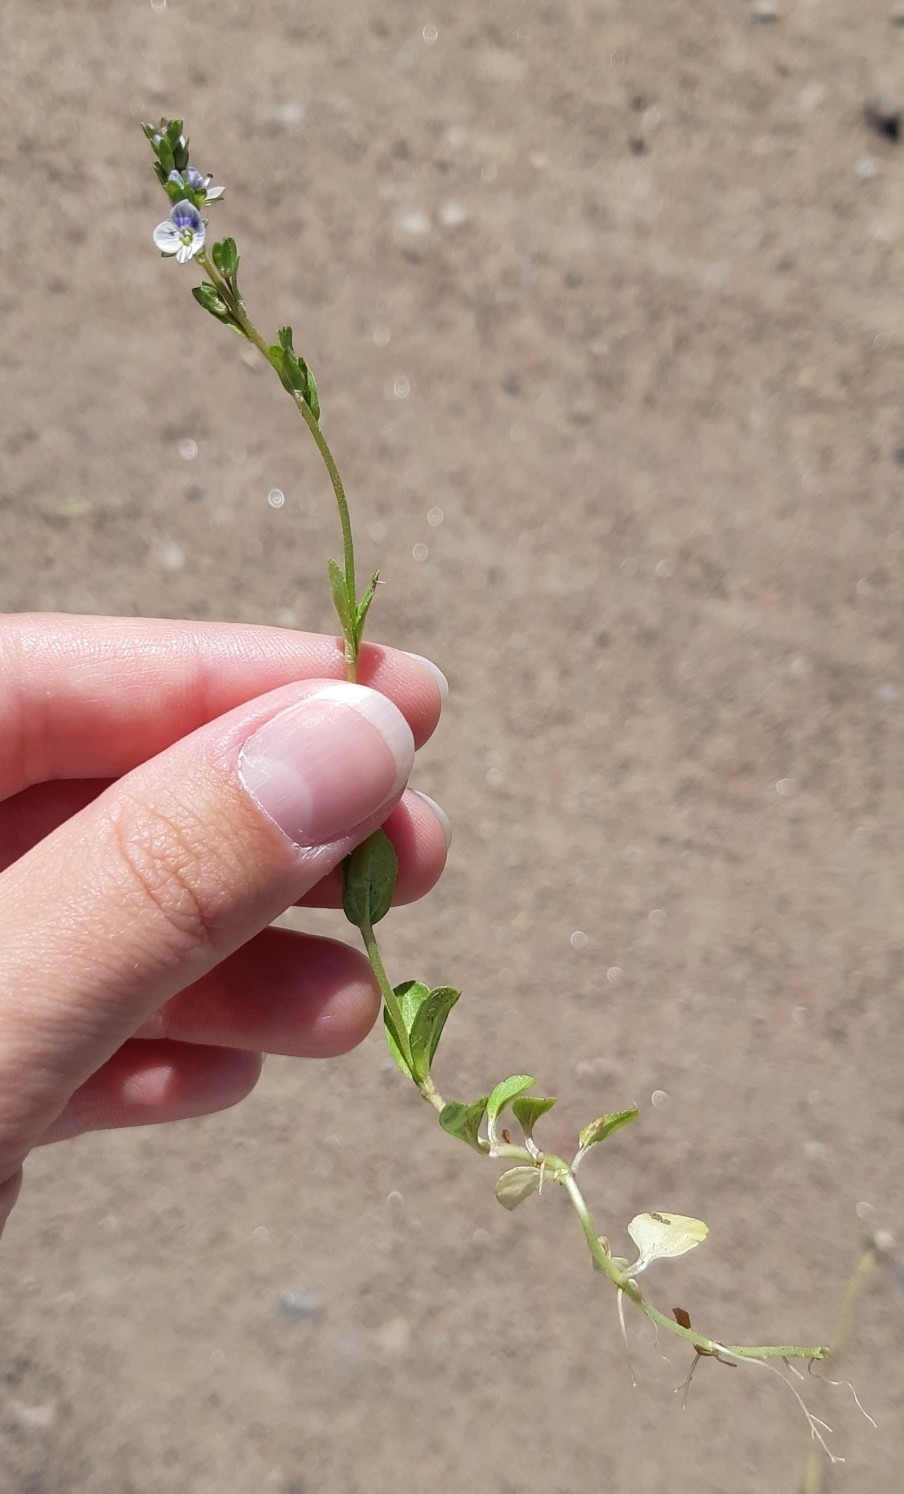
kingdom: Plantae
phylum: Tracheophyta
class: Magnoliopsida
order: Lamiales
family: Plantaginaceae
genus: Veronica
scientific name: Veronica serpyllifolia
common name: Thyme-leaved speedwell
